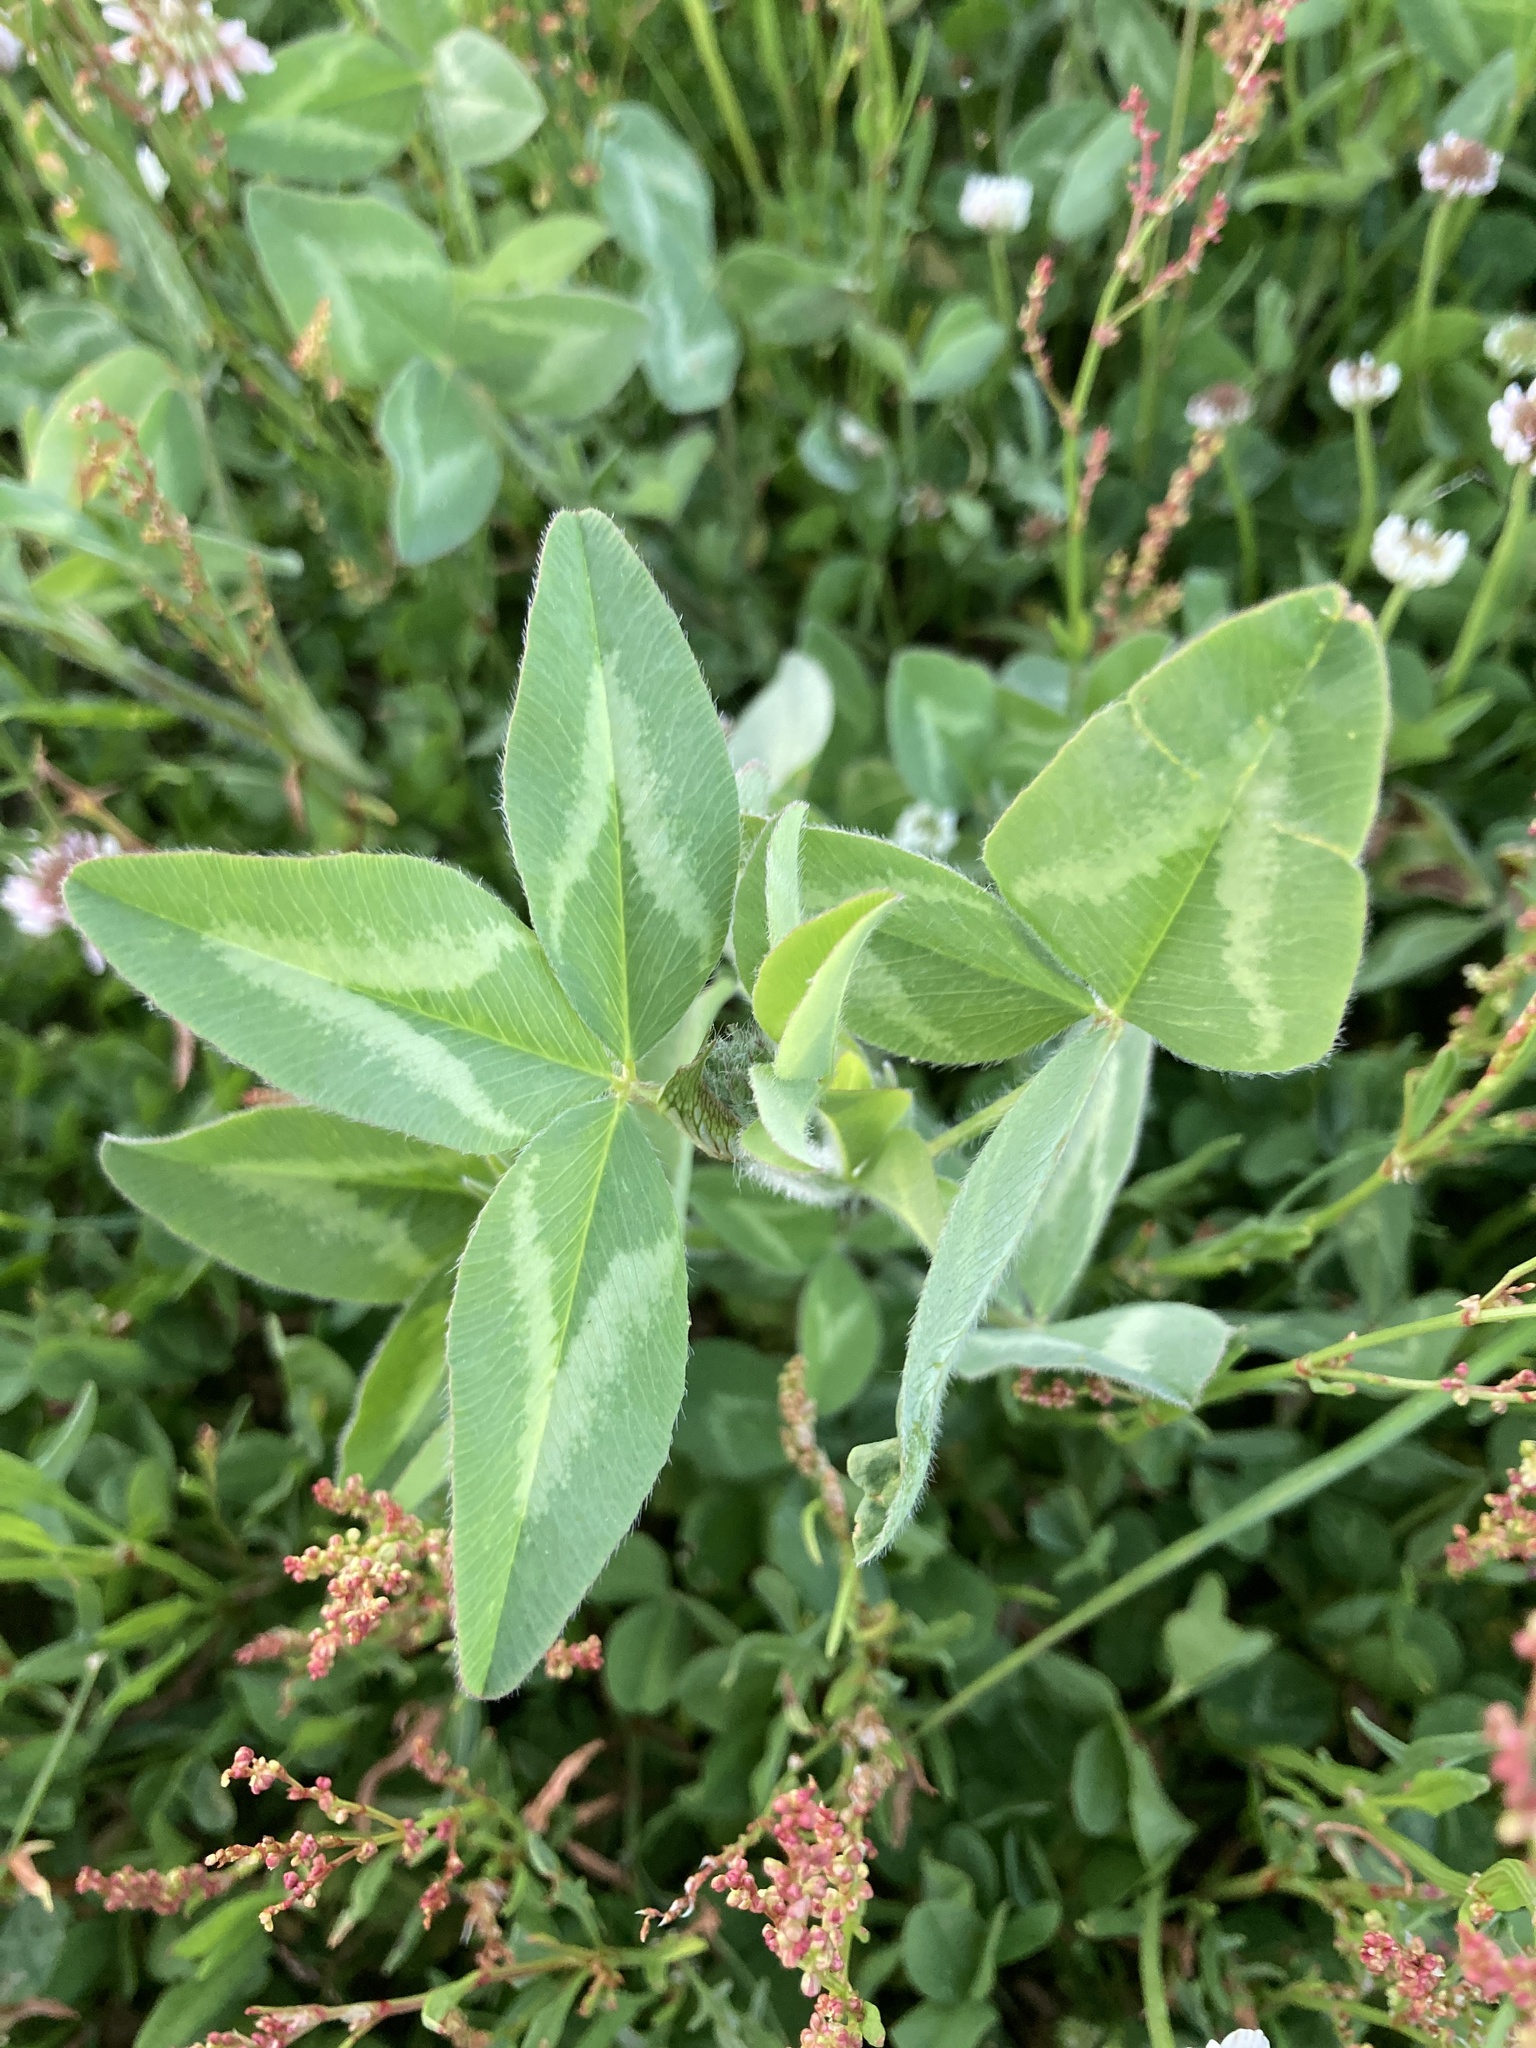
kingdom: Plantae
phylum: Tracheophyta
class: Magnoliopsida
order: Fabales
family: Fabaceae
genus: Trifolium
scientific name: Trifolium pratense
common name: Red clover
